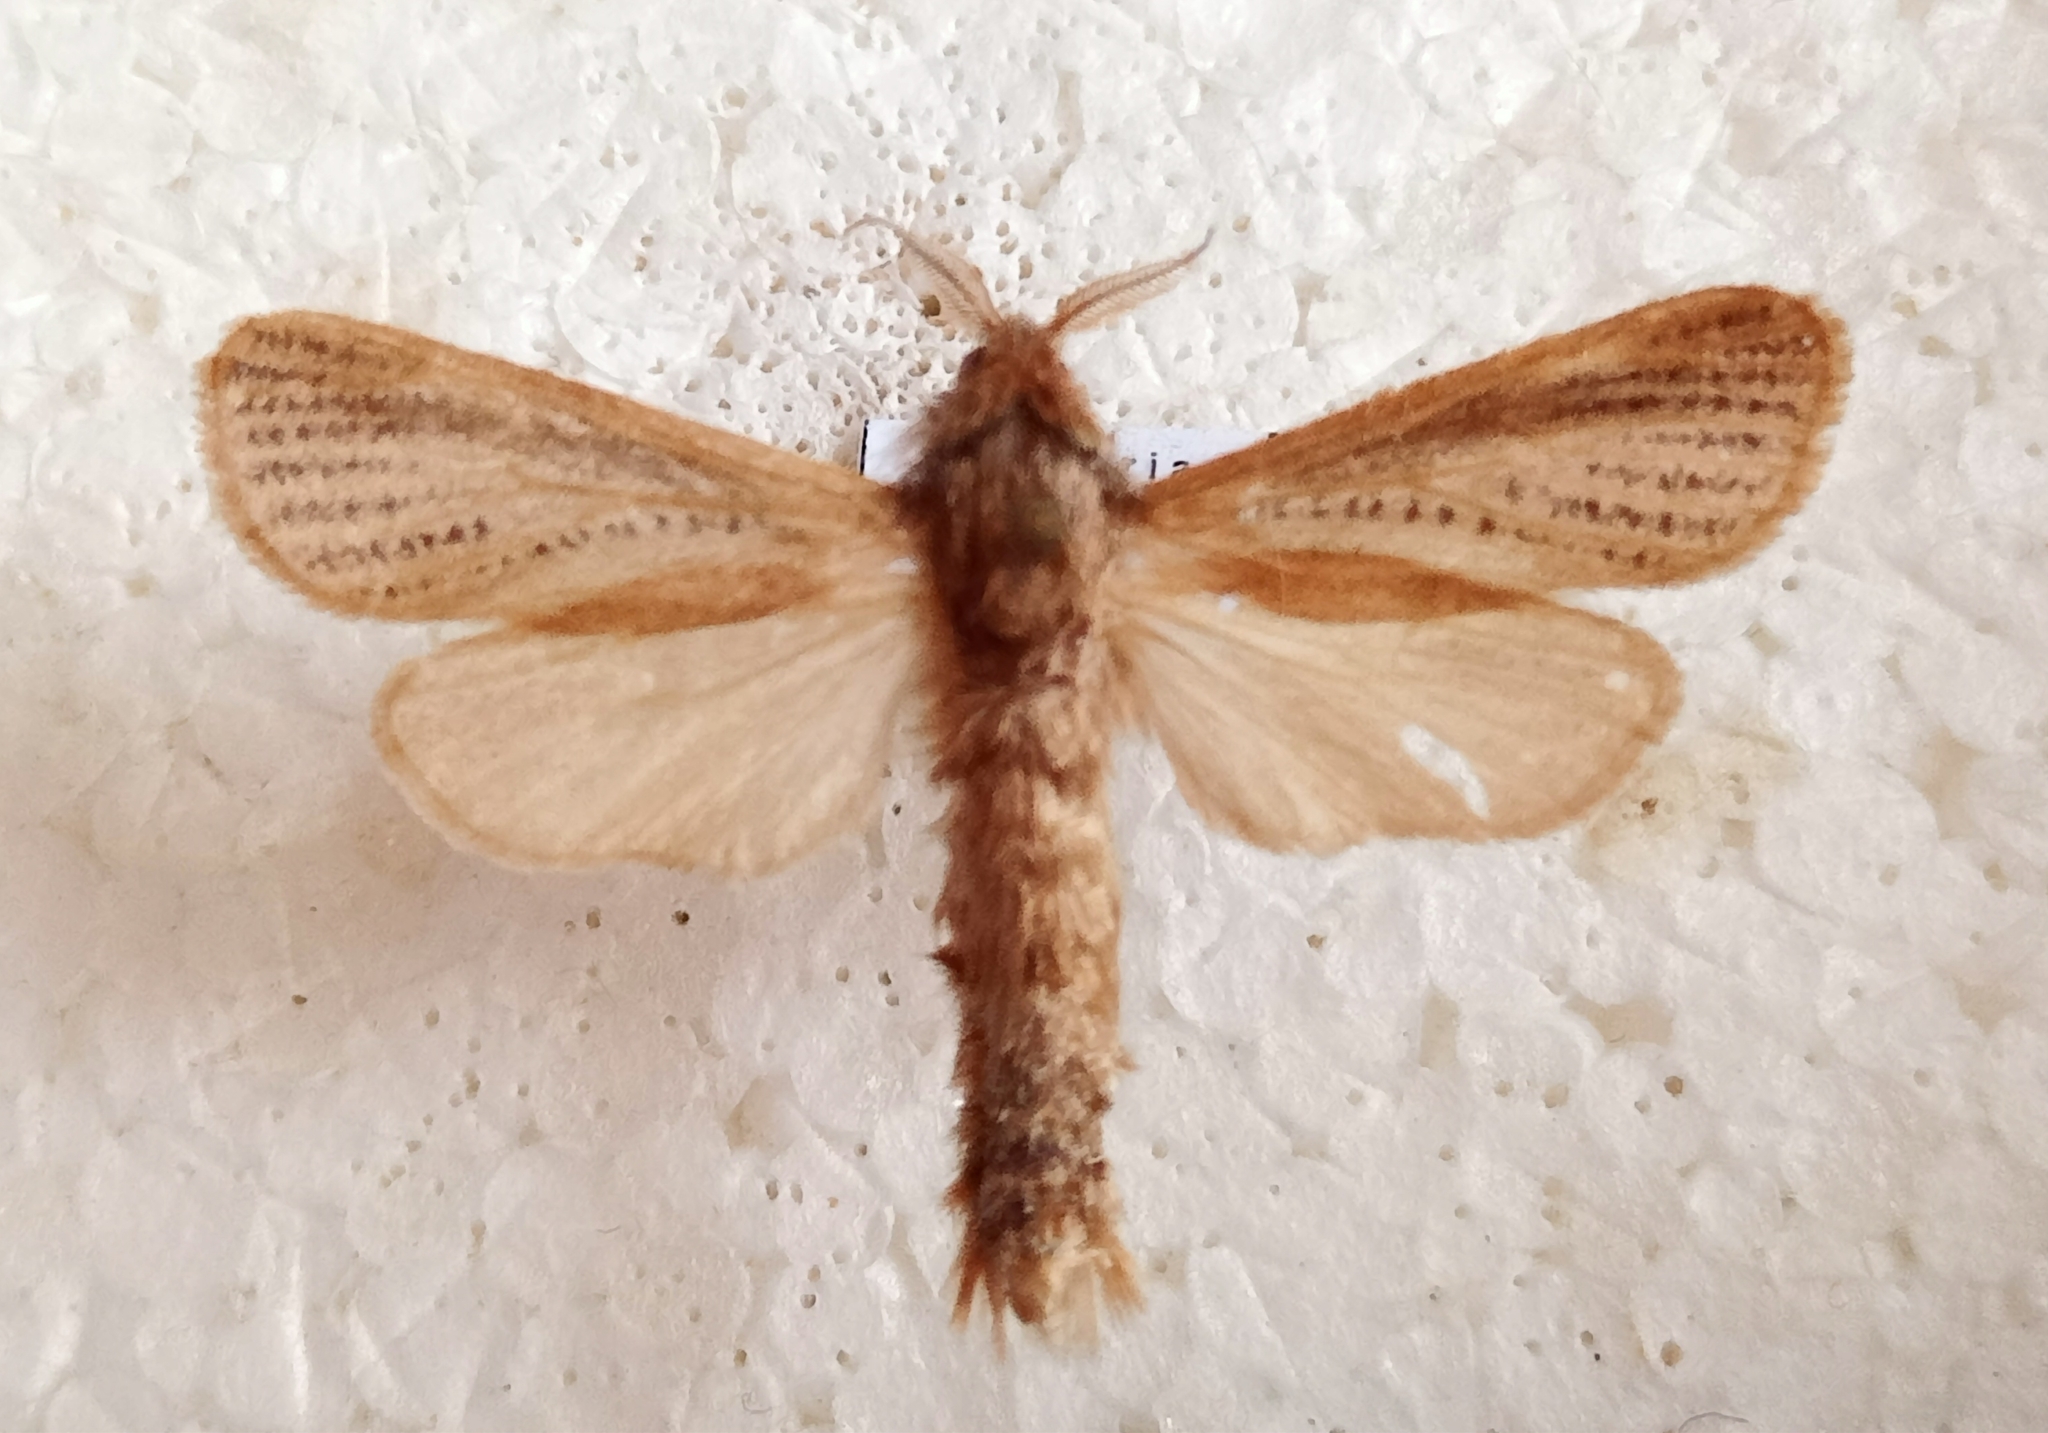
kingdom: Animalia
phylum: Arthropoda
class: Insecta
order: Lepidoptera
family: Cossidae
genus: Phragmataecia
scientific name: Phragmataecia castaneae
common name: Reed leopard
